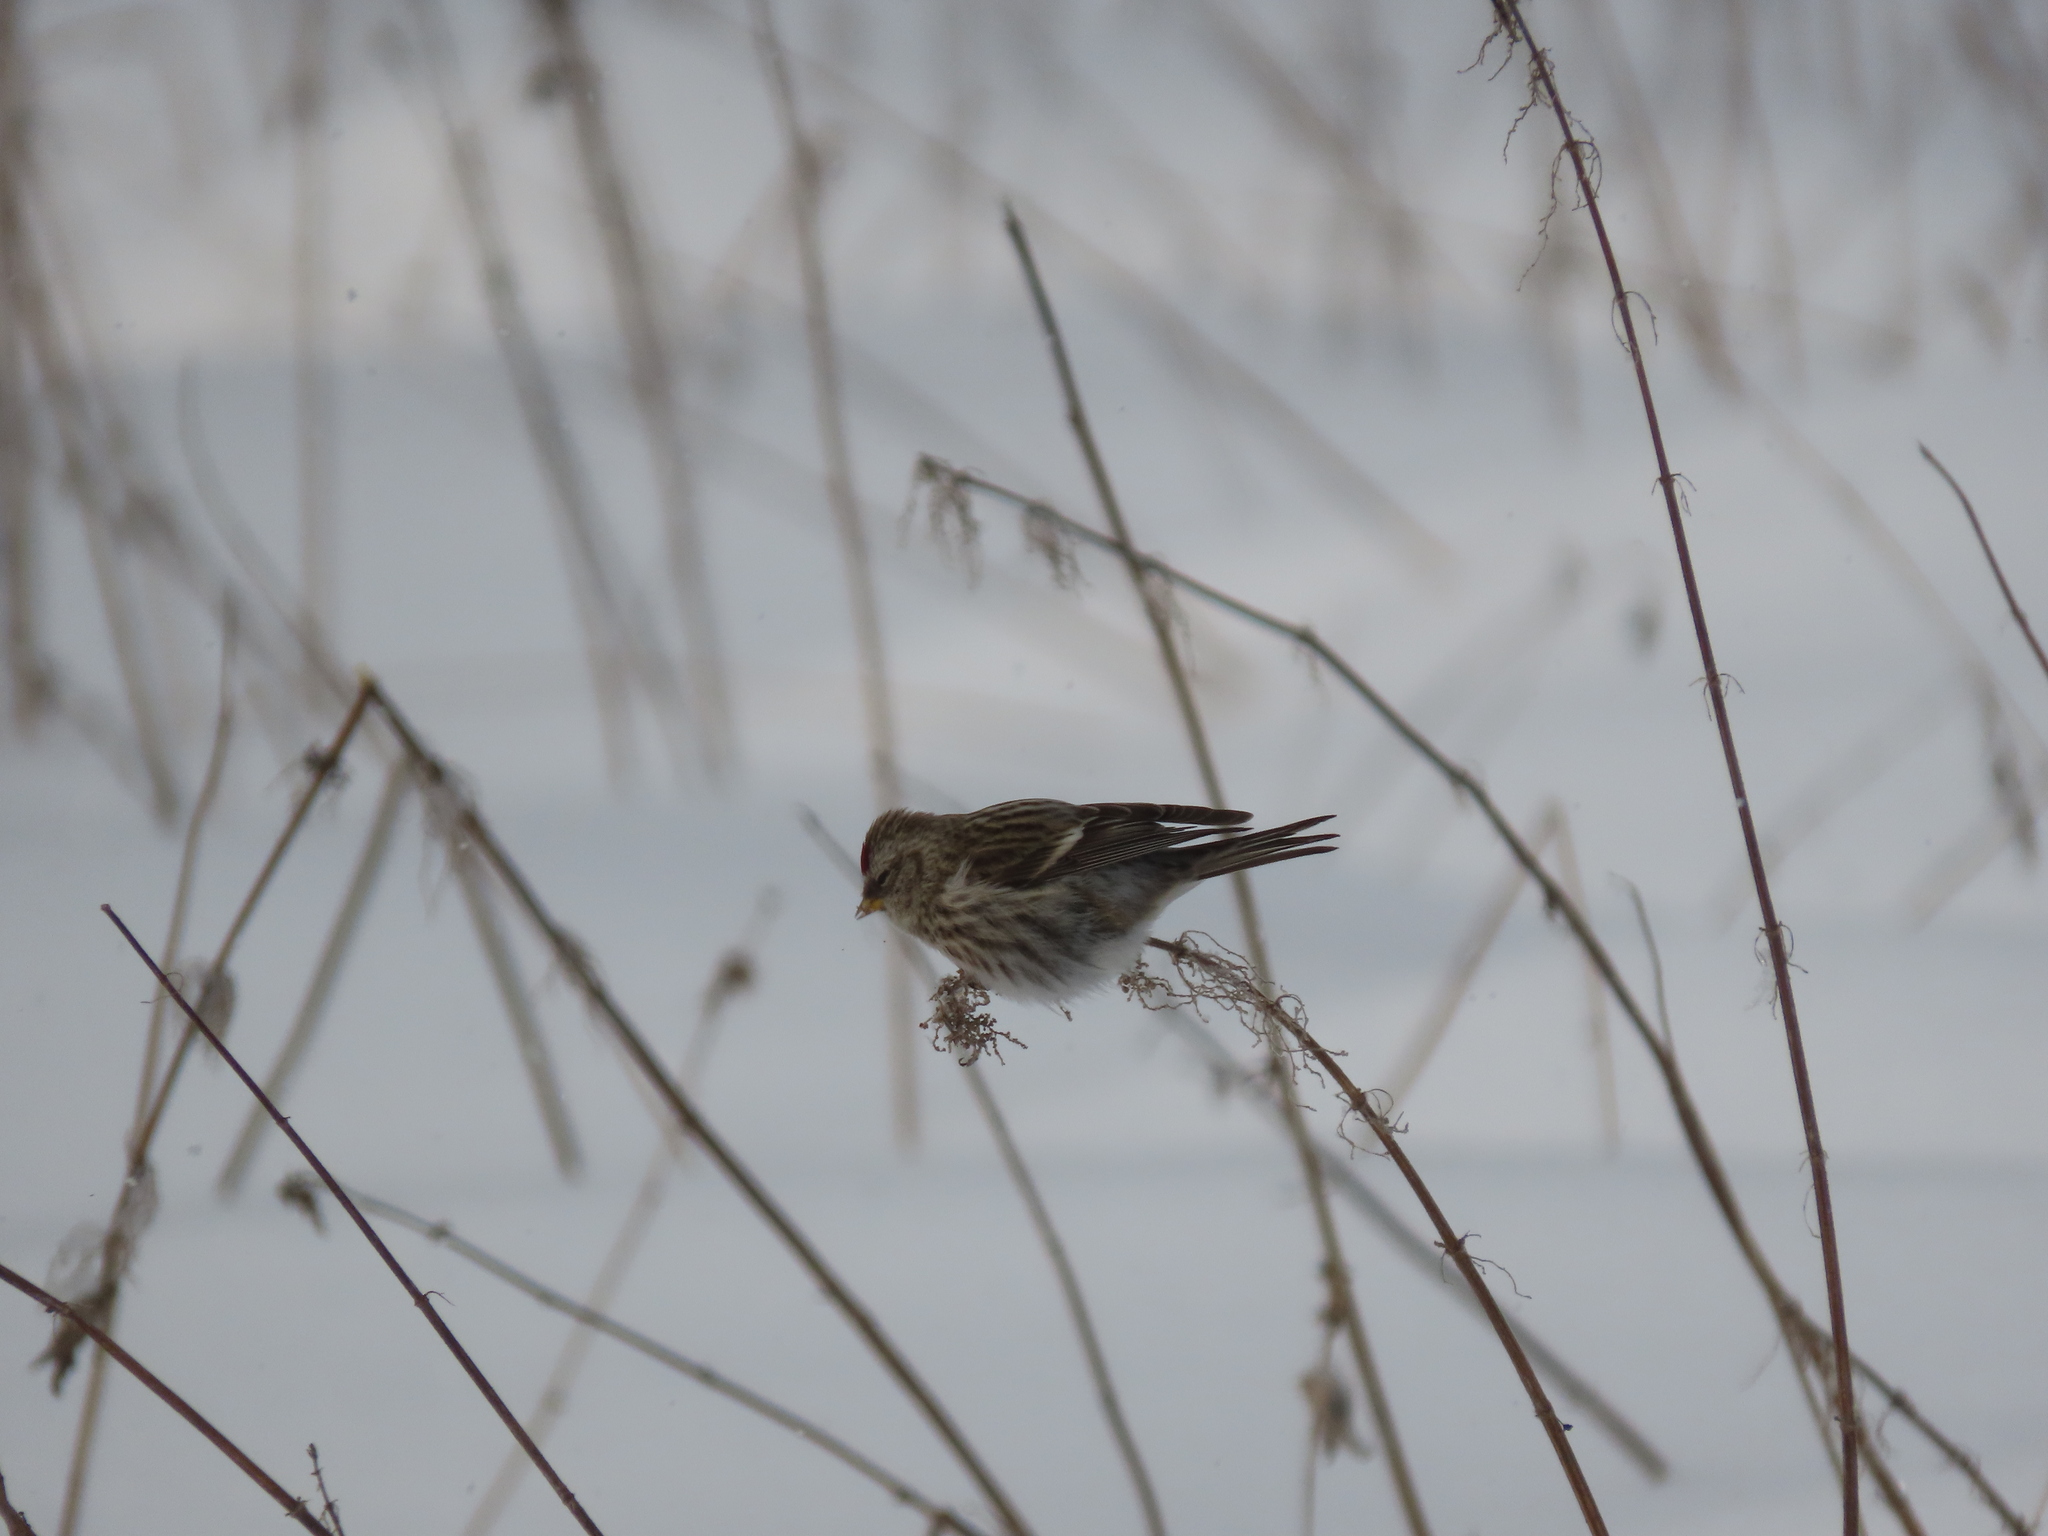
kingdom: Animalia
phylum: Chordata
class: Aves
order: Passeriformes
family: Fringillidae
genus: Acanthis
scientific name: Acanthis flammea
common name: Common redpoll
